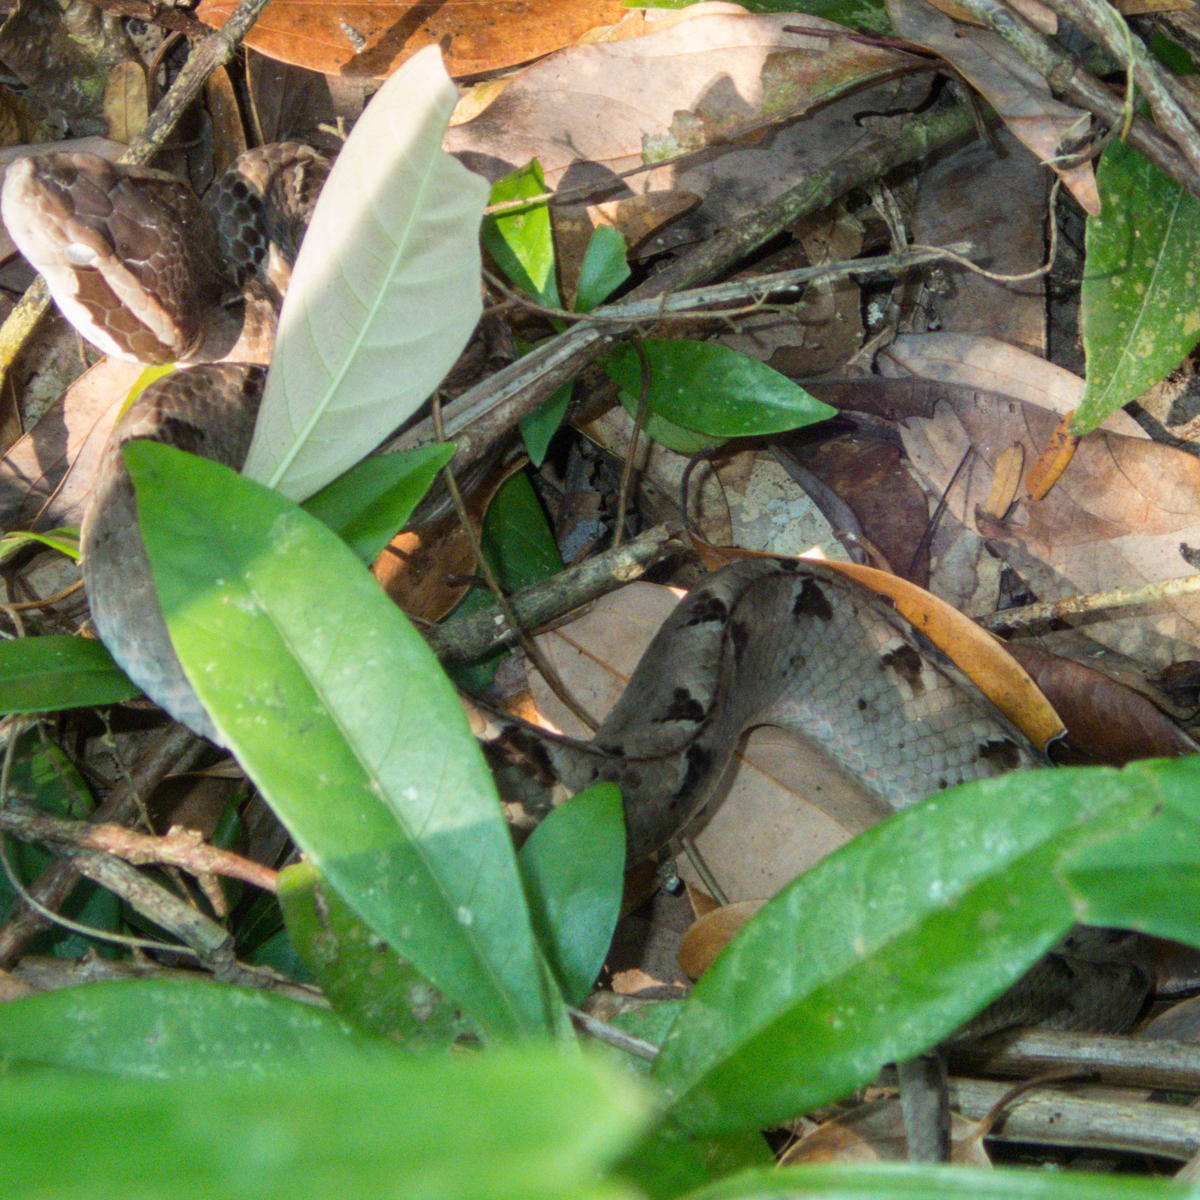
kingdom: Animalia
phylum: Chordata
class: Squamata
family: Viperidae
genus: Calloselasma
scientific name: Calloselasma rhodostoma
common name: Malayan pit viper
